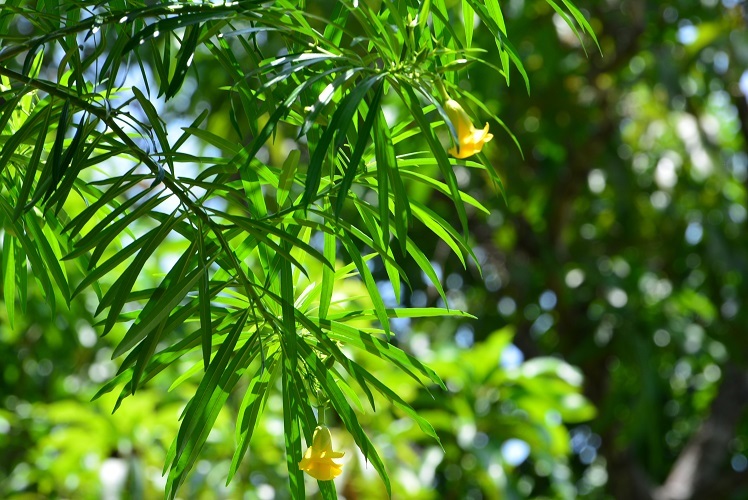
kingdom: Plantae
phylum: Tracheophyta
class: Magnoliopsida
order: Gentianales
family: Apocynaceae
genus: Cascabela
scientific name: Cascabela thevetia
